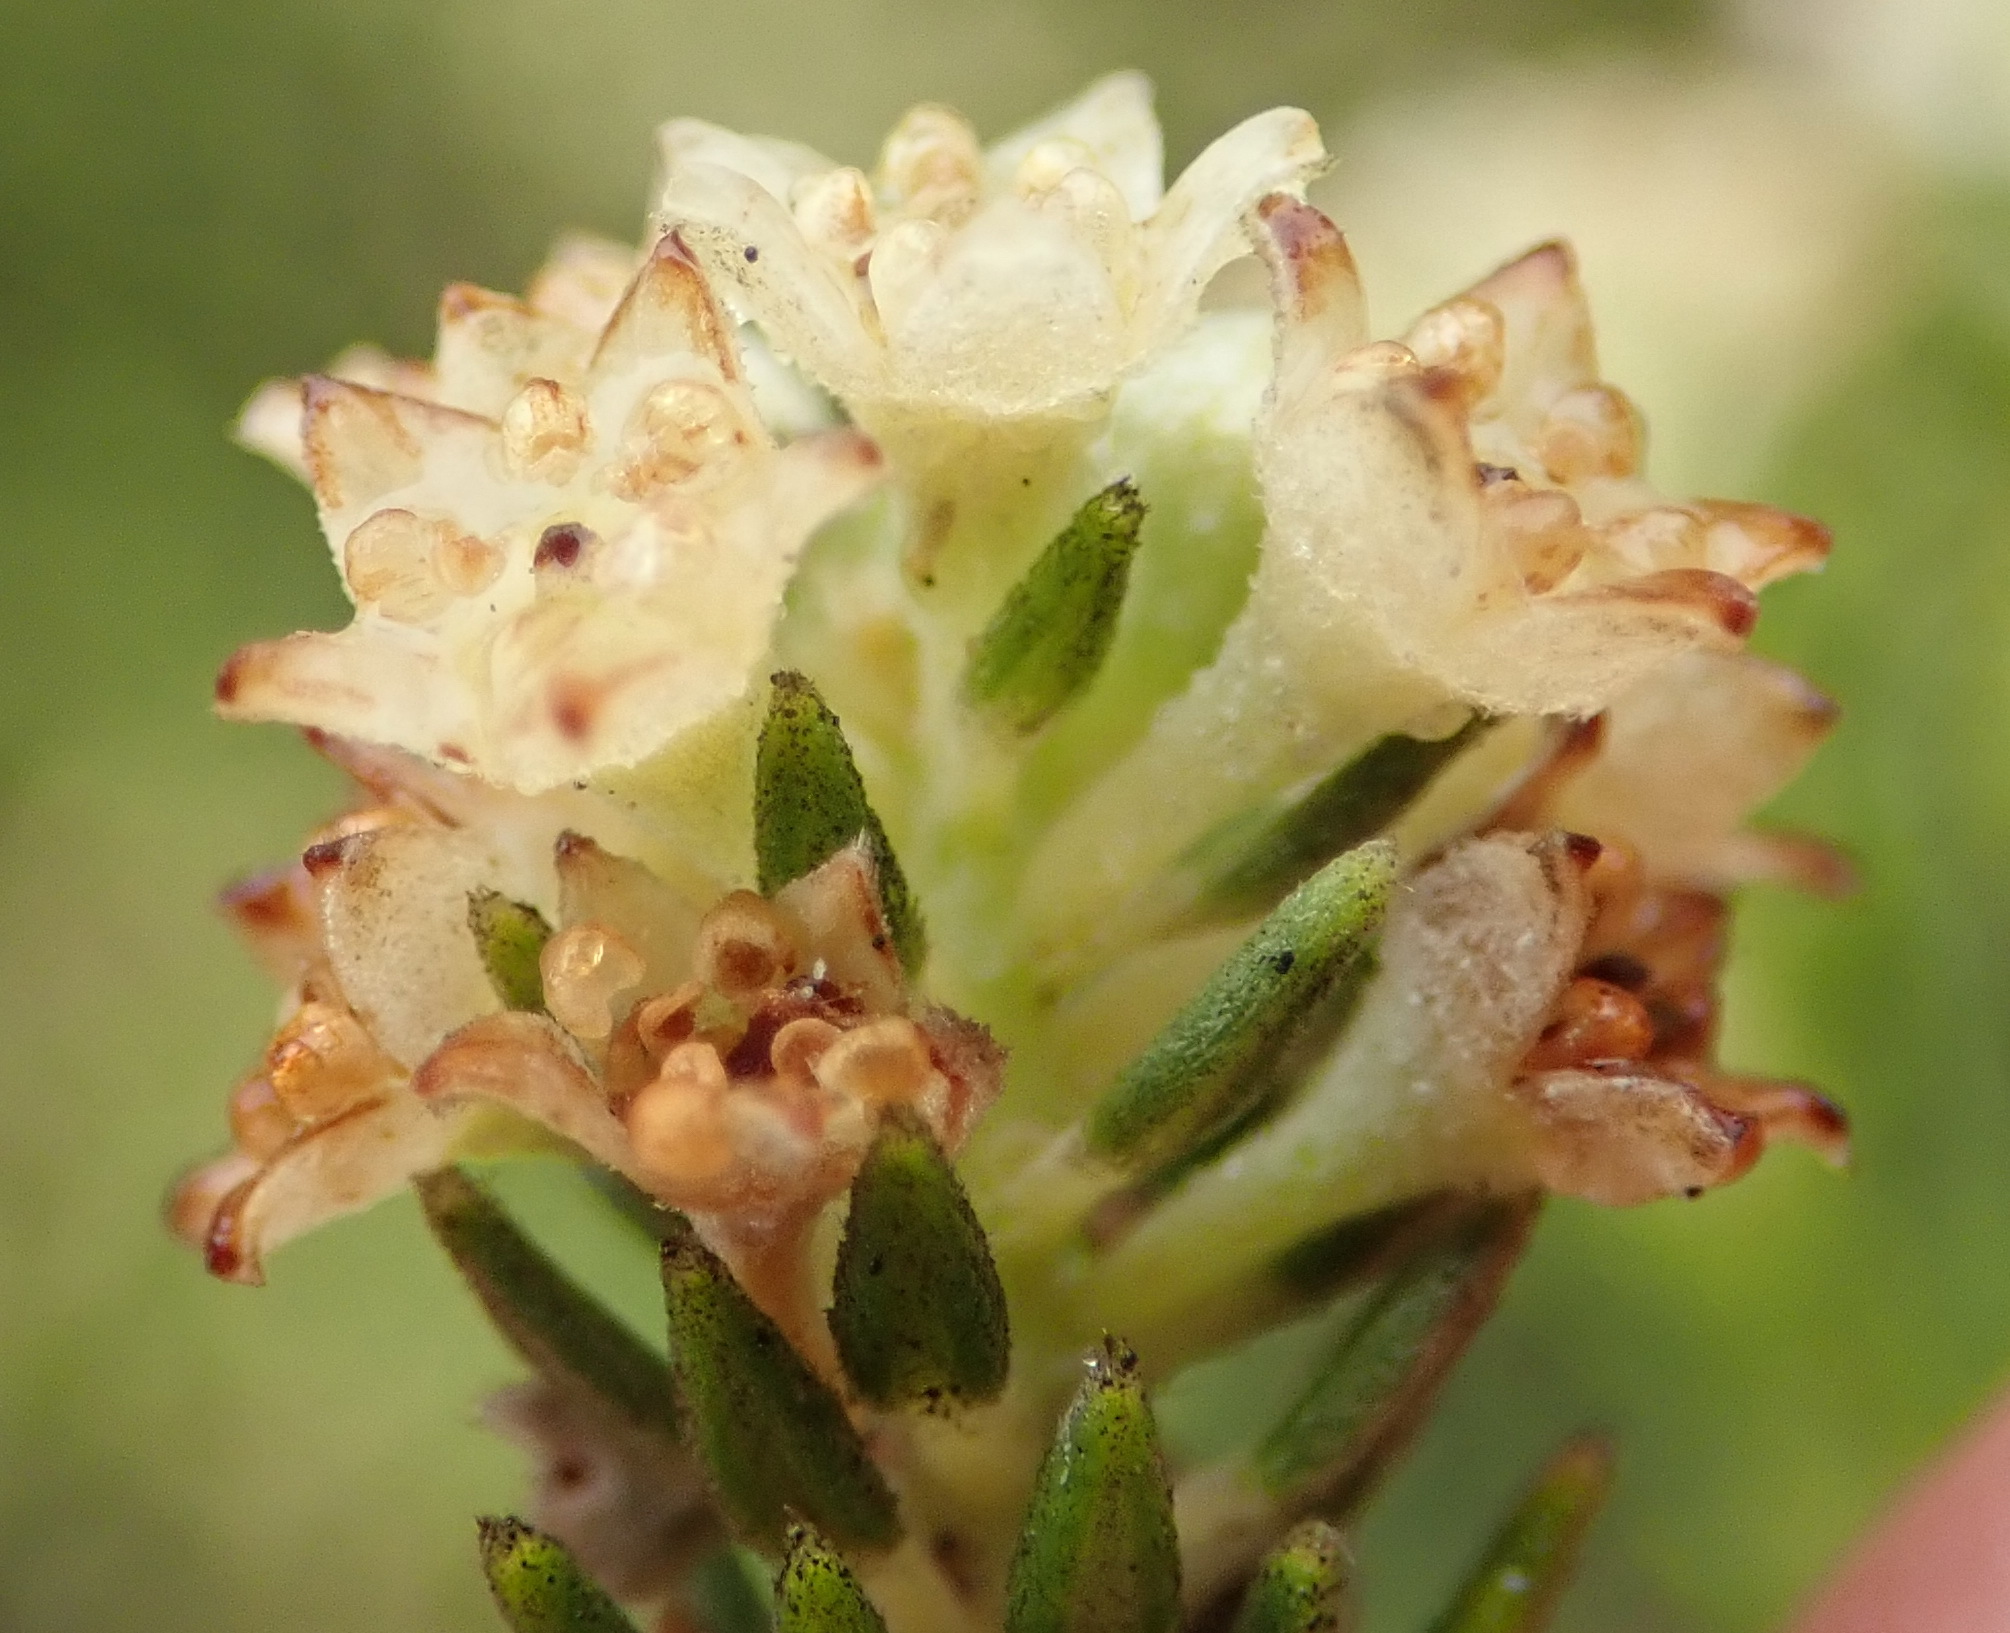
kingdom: Plantae
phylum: Tracheophyta
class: Magnoliopsida
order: Rosales
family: Rhamnaceae
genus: Phylica
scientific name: Phylica axillaris
